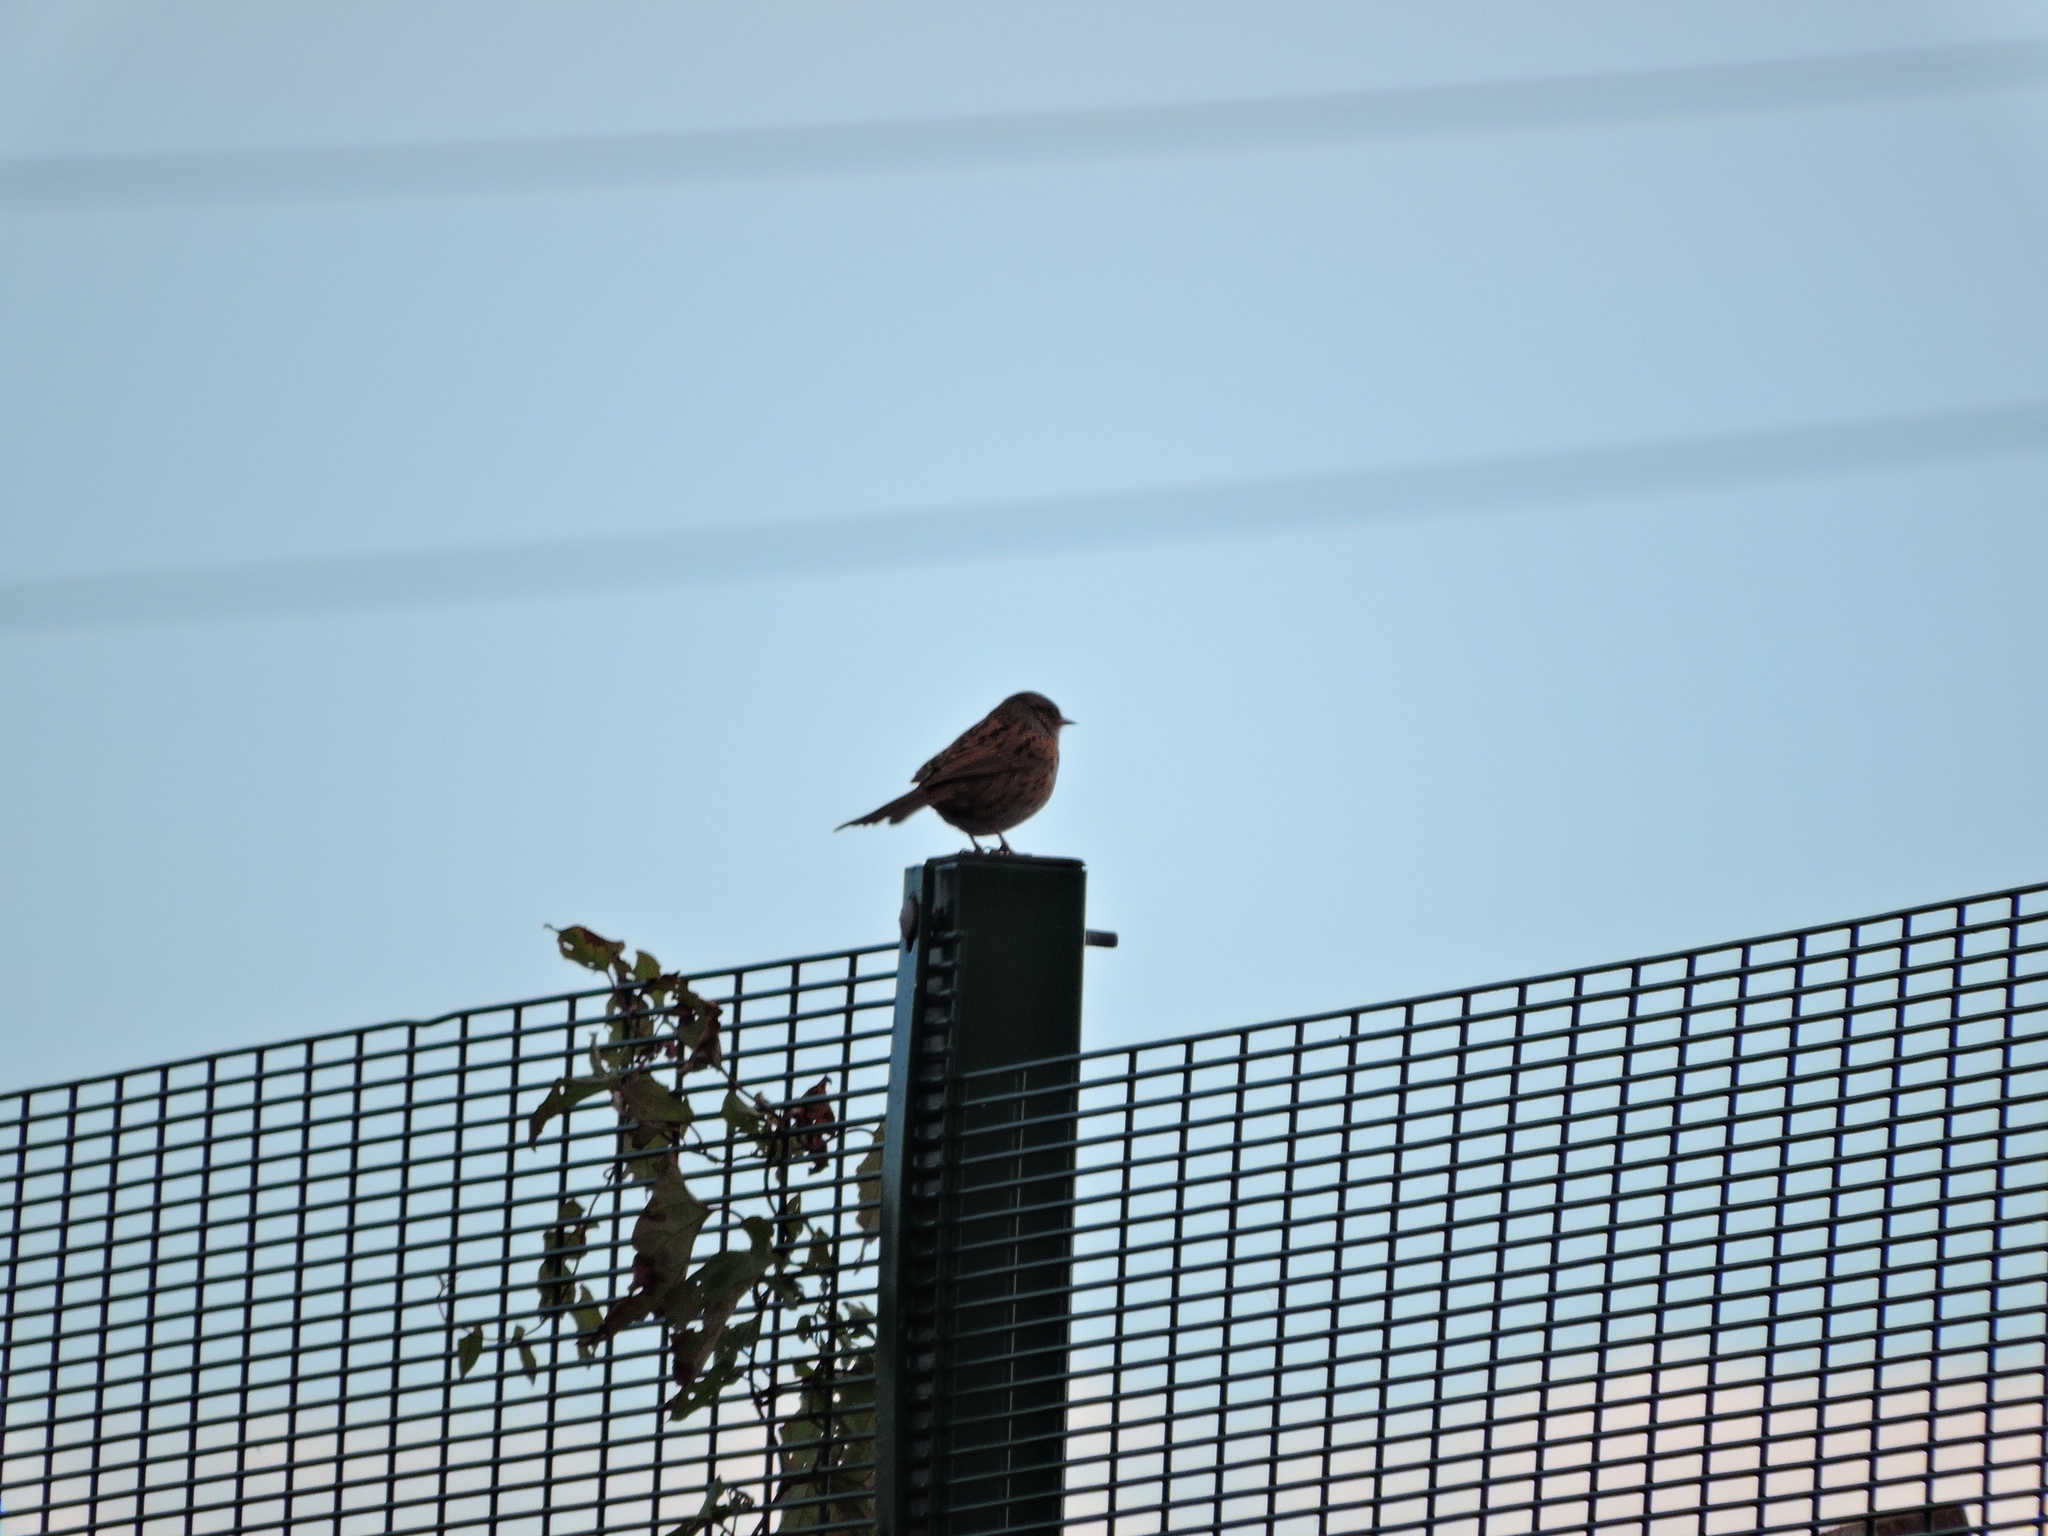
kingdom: Animalia
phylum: Chordata
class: Aves
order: Passeriformes
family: Prunellidae
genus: Prunella
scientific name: Prunella modularis
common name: Dunnock
